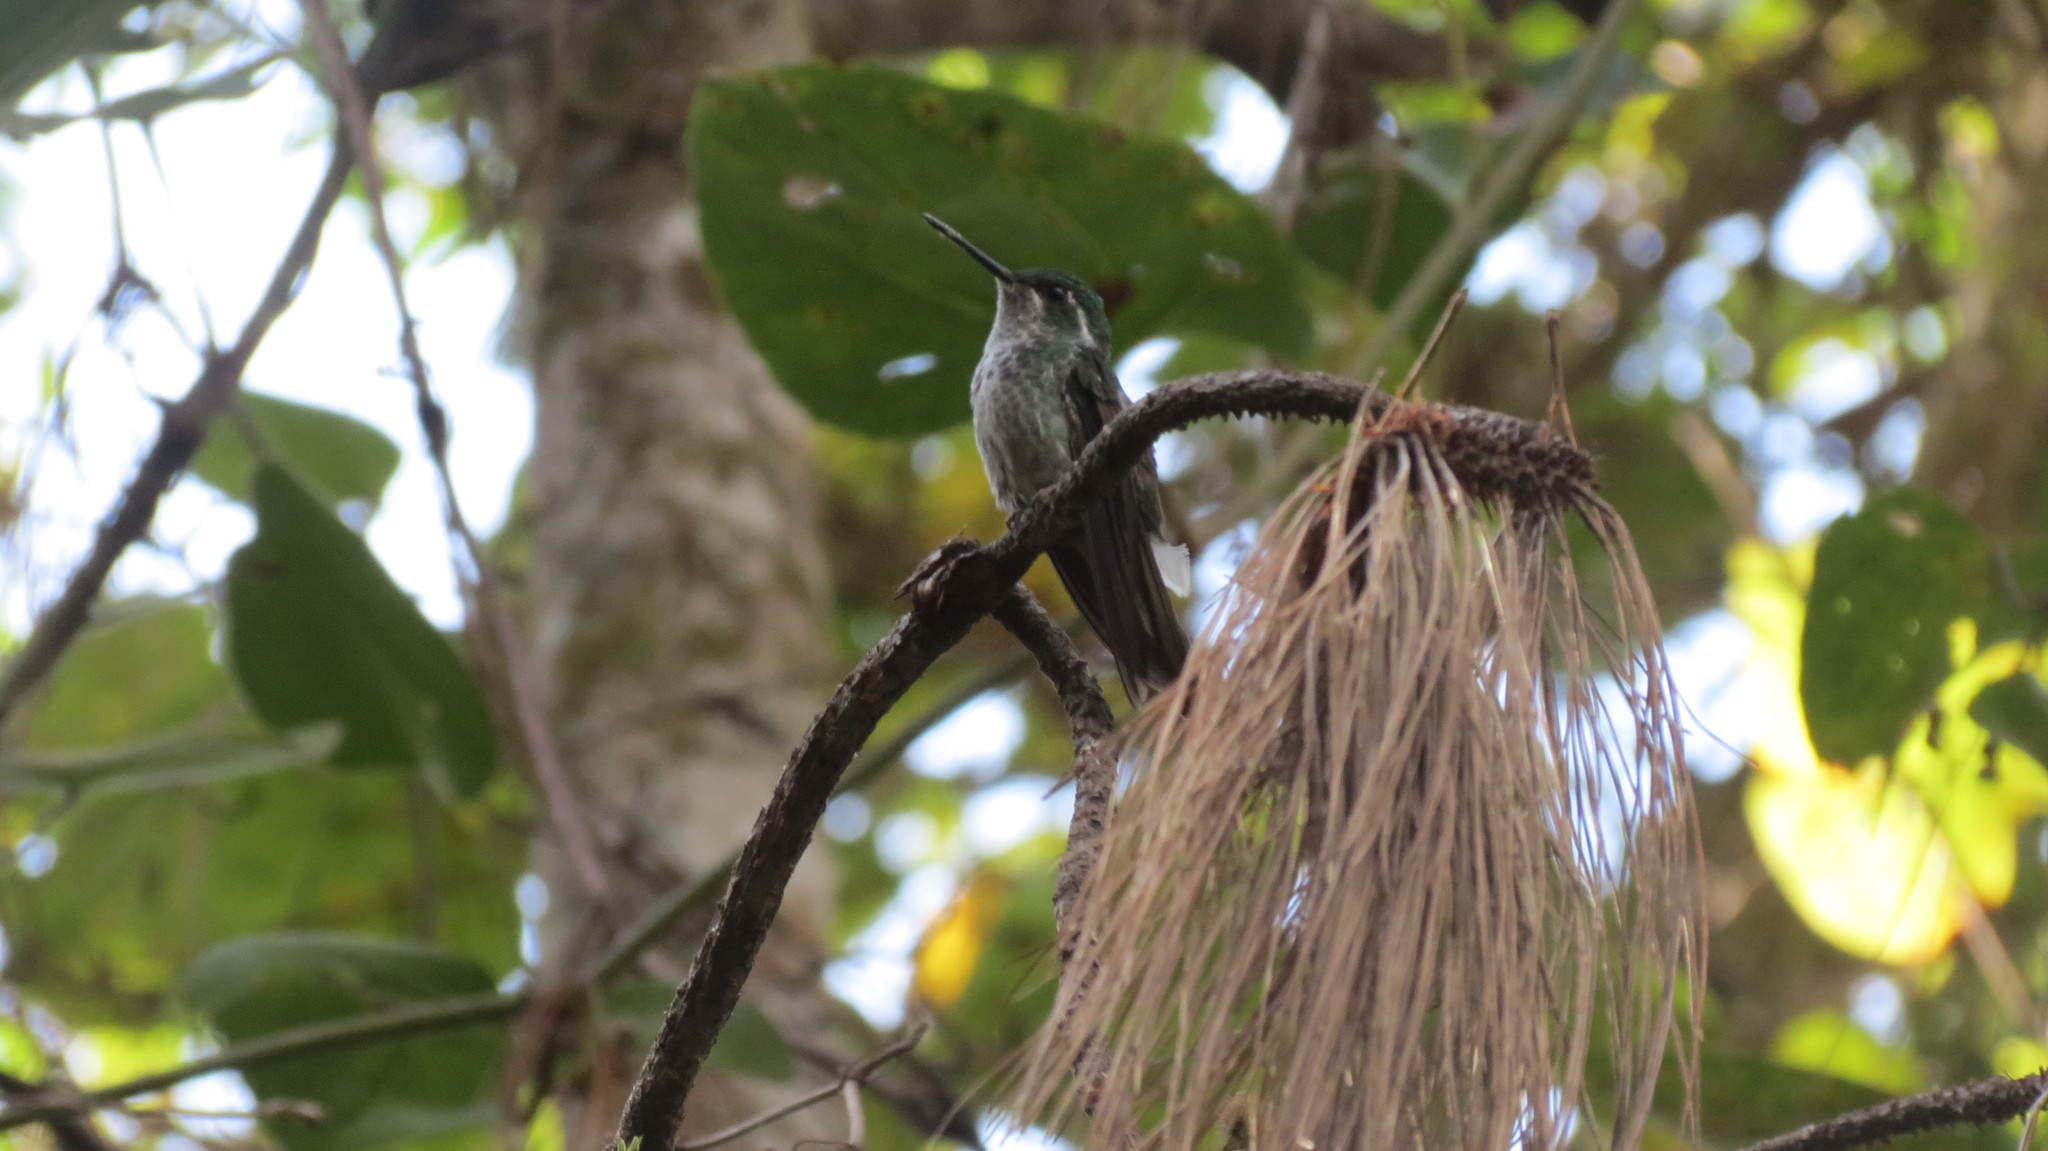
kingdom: Animalia
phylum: Chordata
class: Aves
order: Apodiformes
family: Trochilidae
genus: Lampornis
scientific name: Lampornis sybillae
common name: Green-breasted mountain-gem
